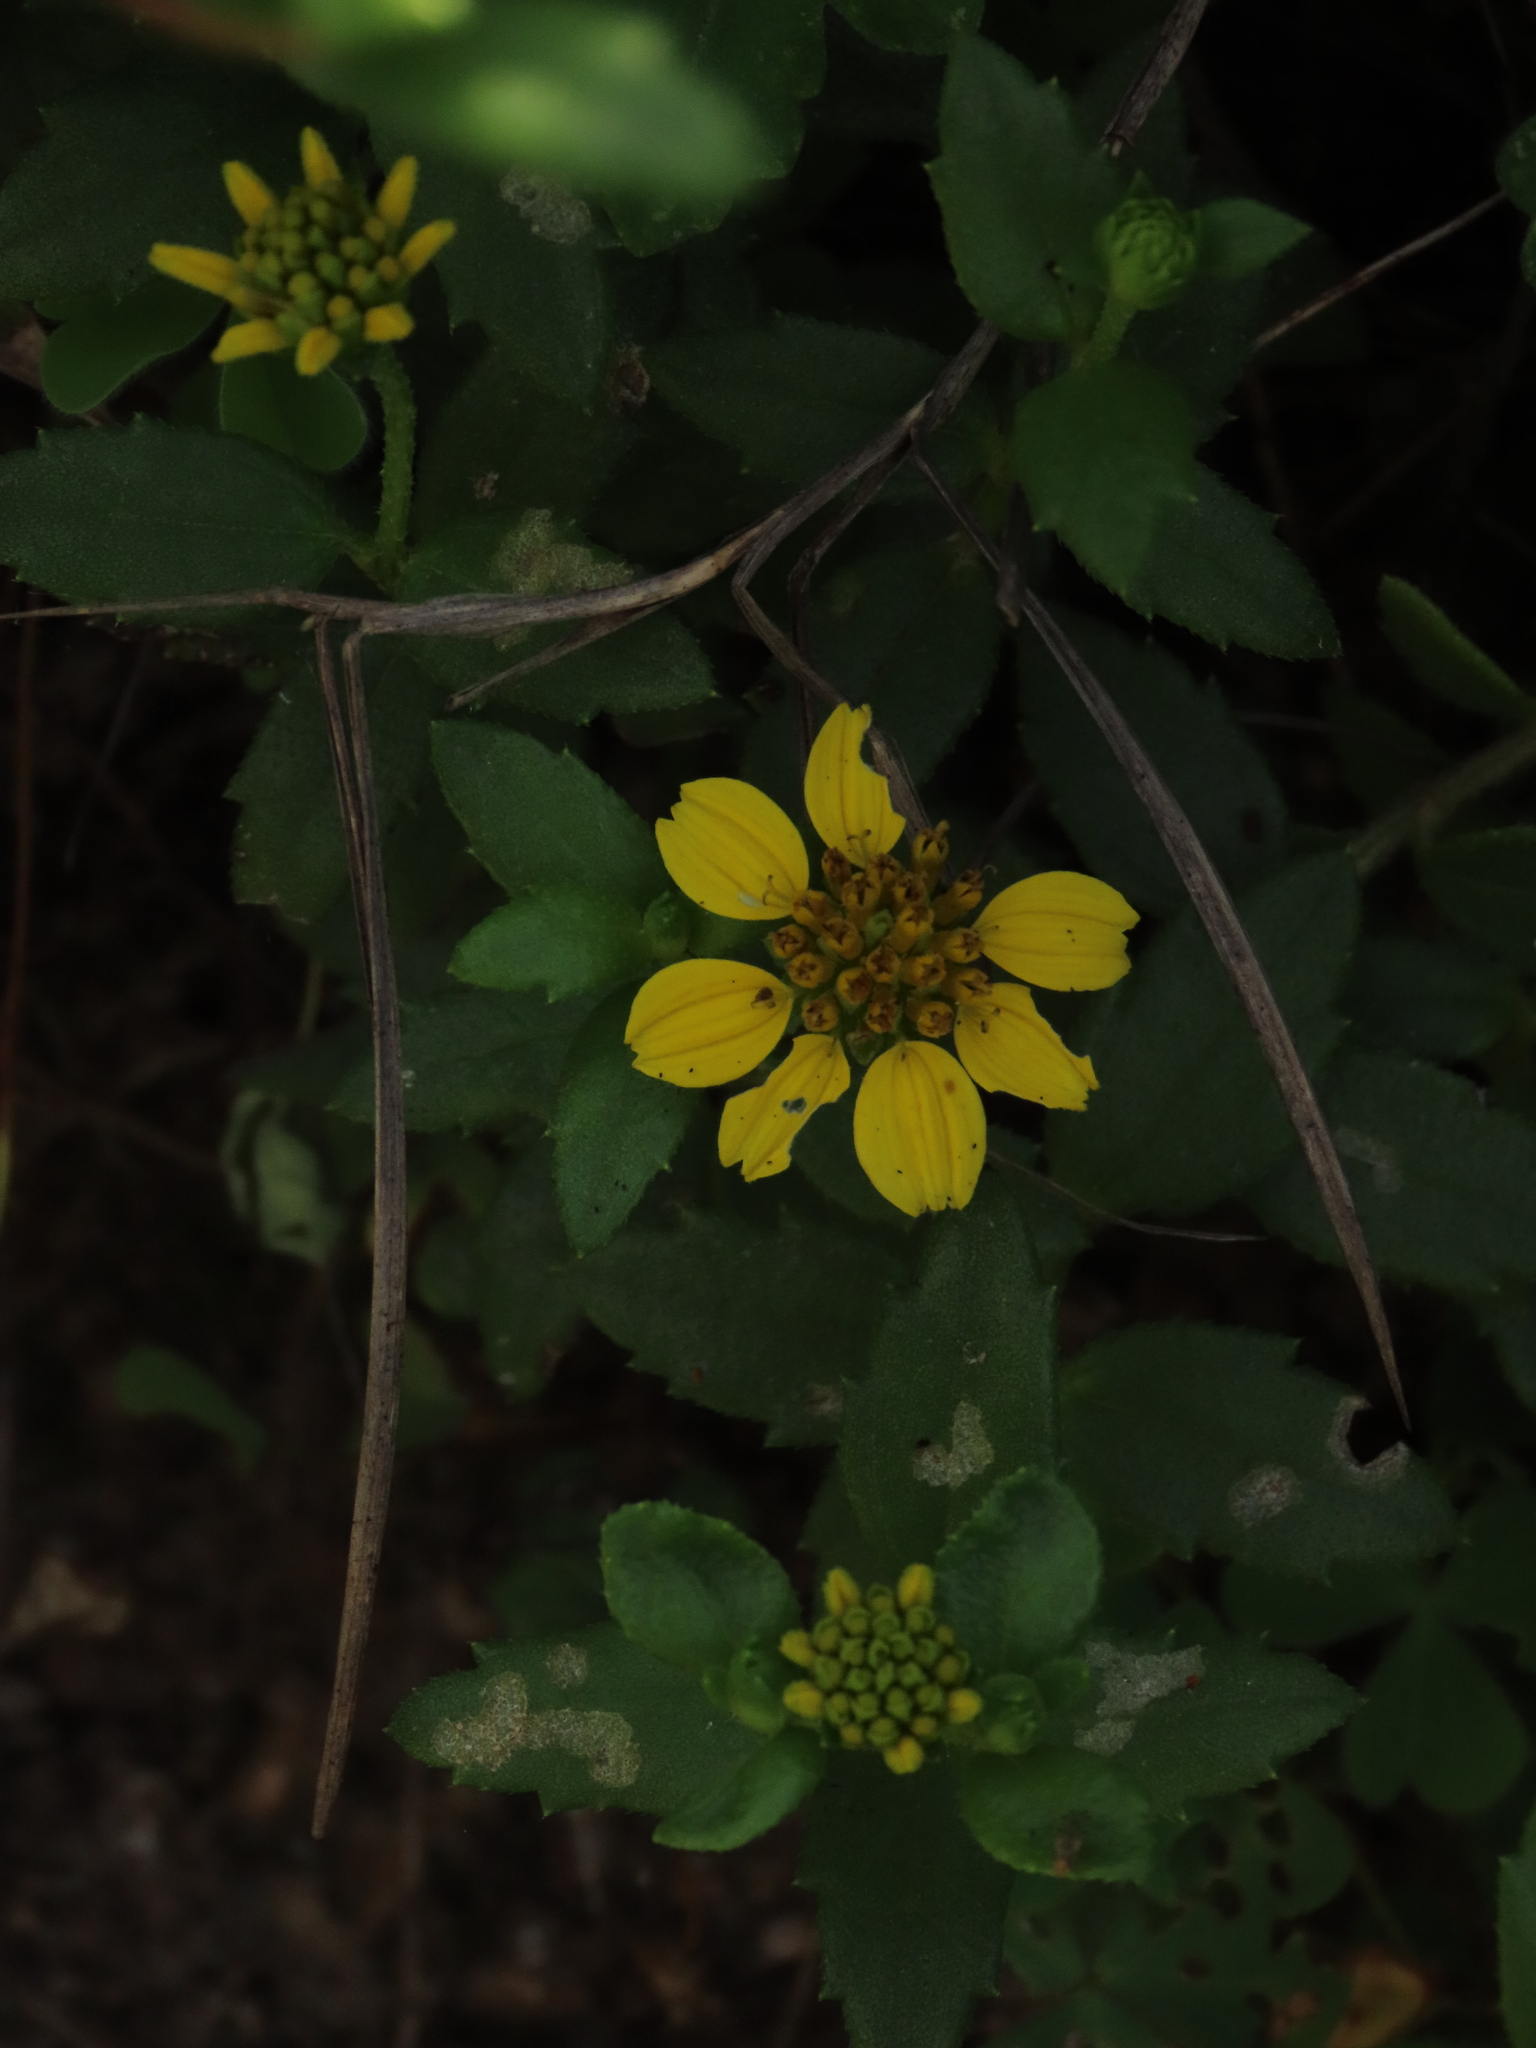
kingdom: Plantae
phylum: Tracheophyta
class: Magnoliopsida
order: Asterales
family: Asteraceae
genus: Melanthera
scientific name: Melanthera prostrata
